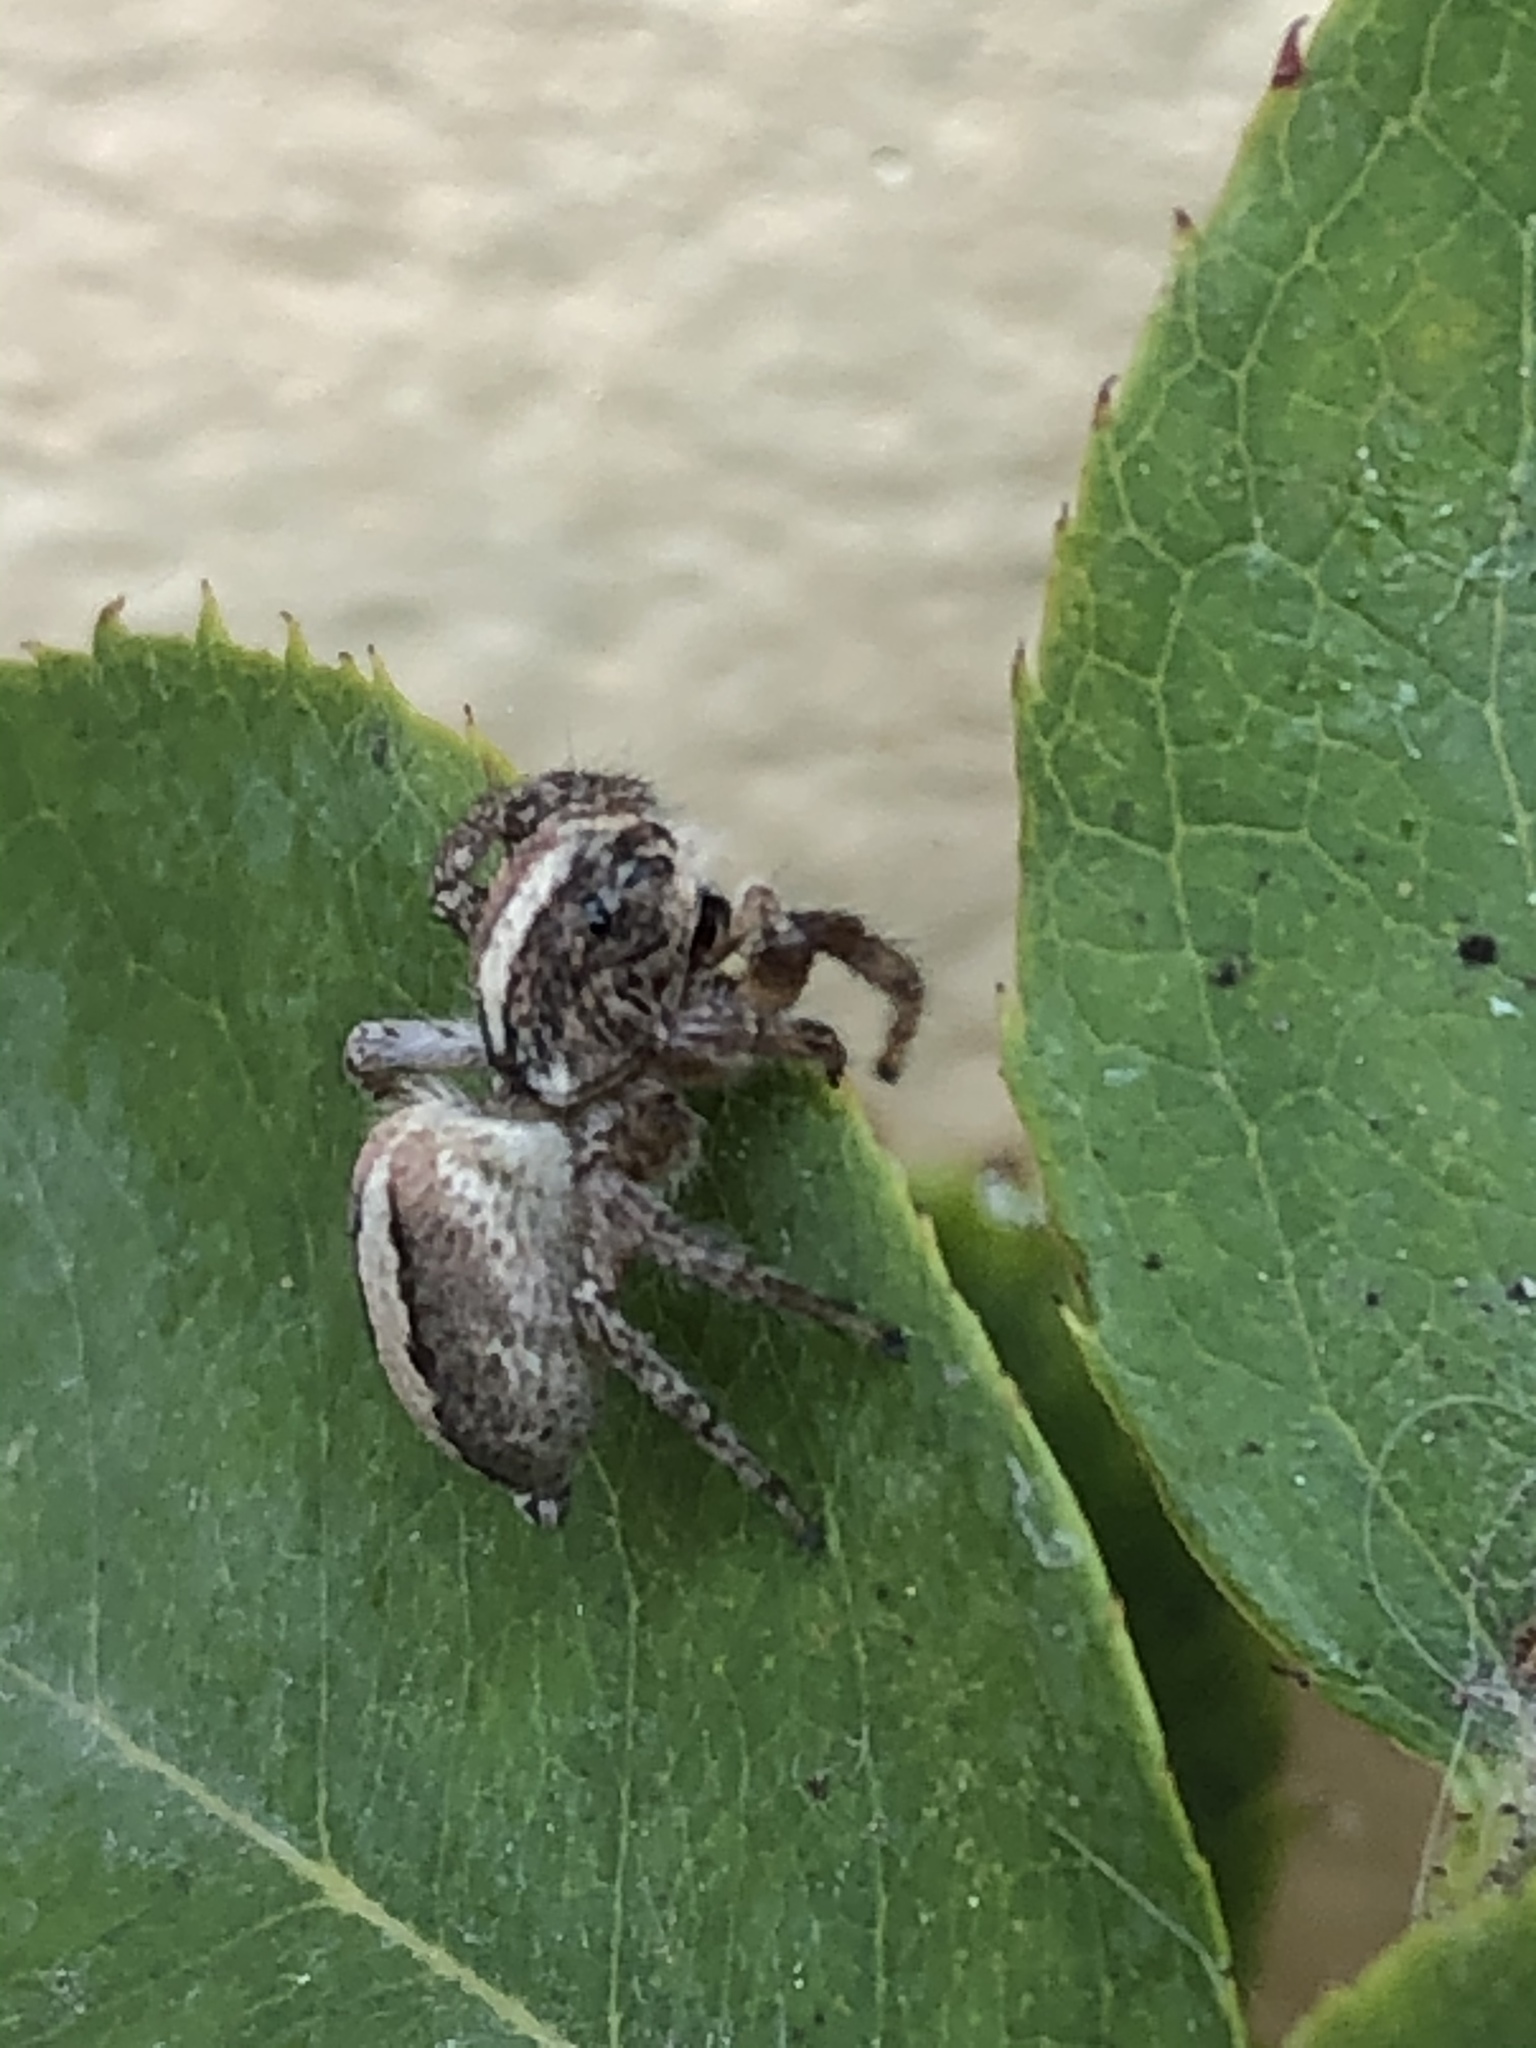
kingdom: Animalia
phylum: Arthropoda
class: Arachnida
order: Araneae
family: Salticidae
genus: Frigga
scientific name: Frigga crocuta
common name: Jumping spiders
